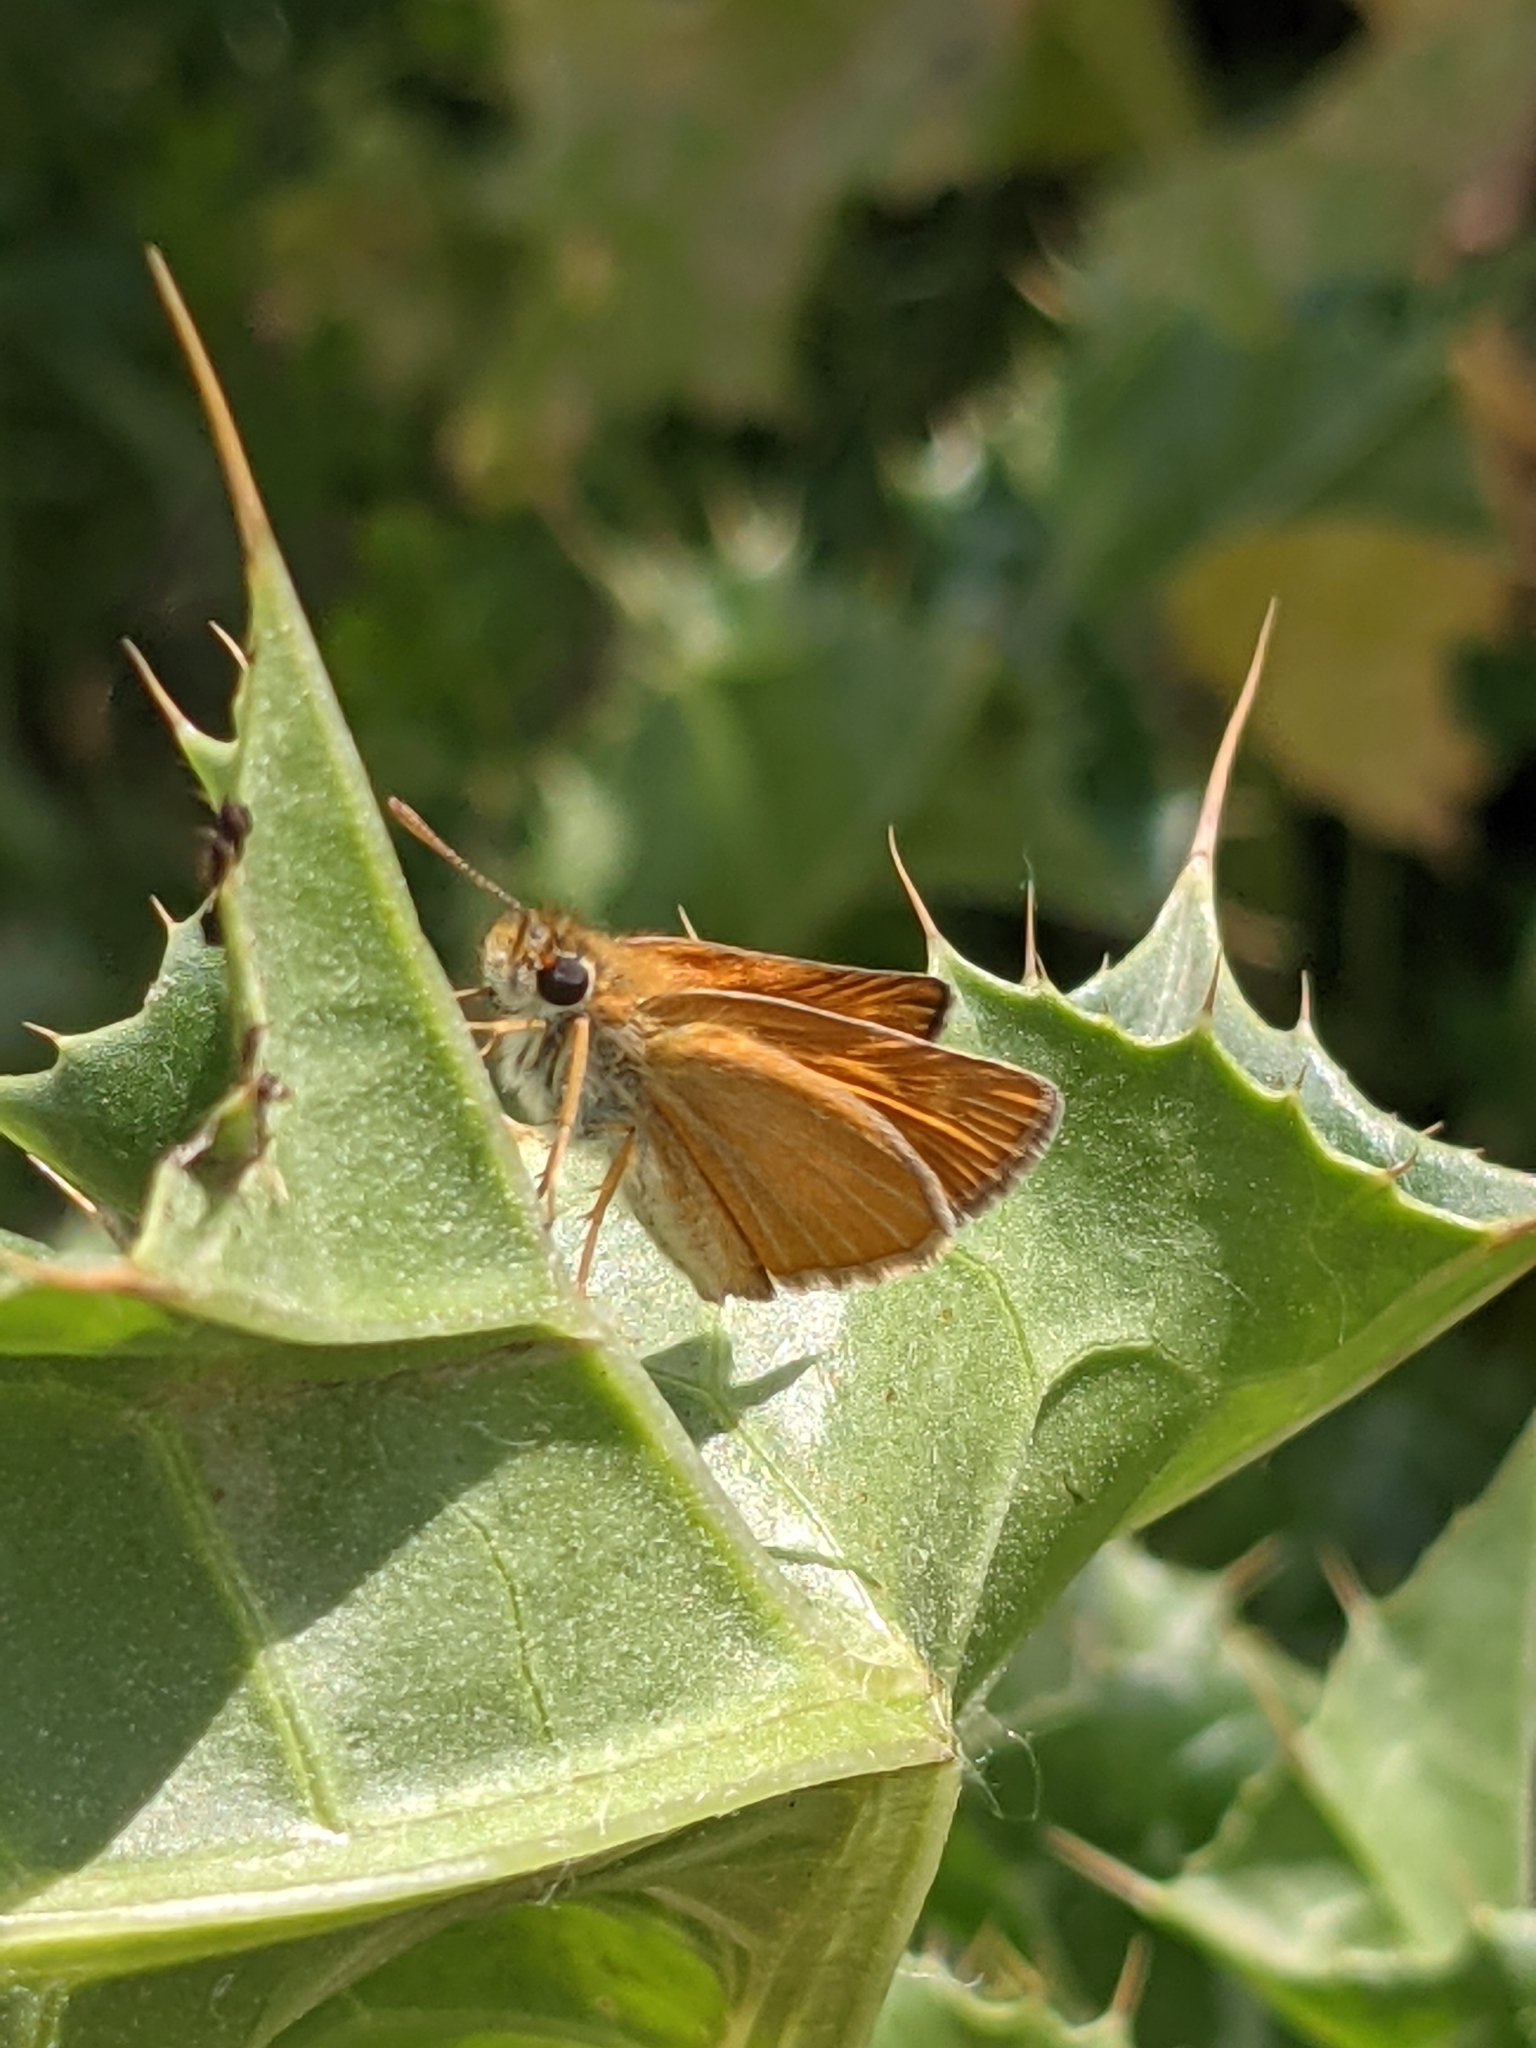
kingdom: Animalia
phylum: Arthropoda
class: Insecta
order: Lepidoptera
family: Hesperiidae
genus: Thymelicus
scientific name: Thymelicus acteon
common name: Lulworth skipper
